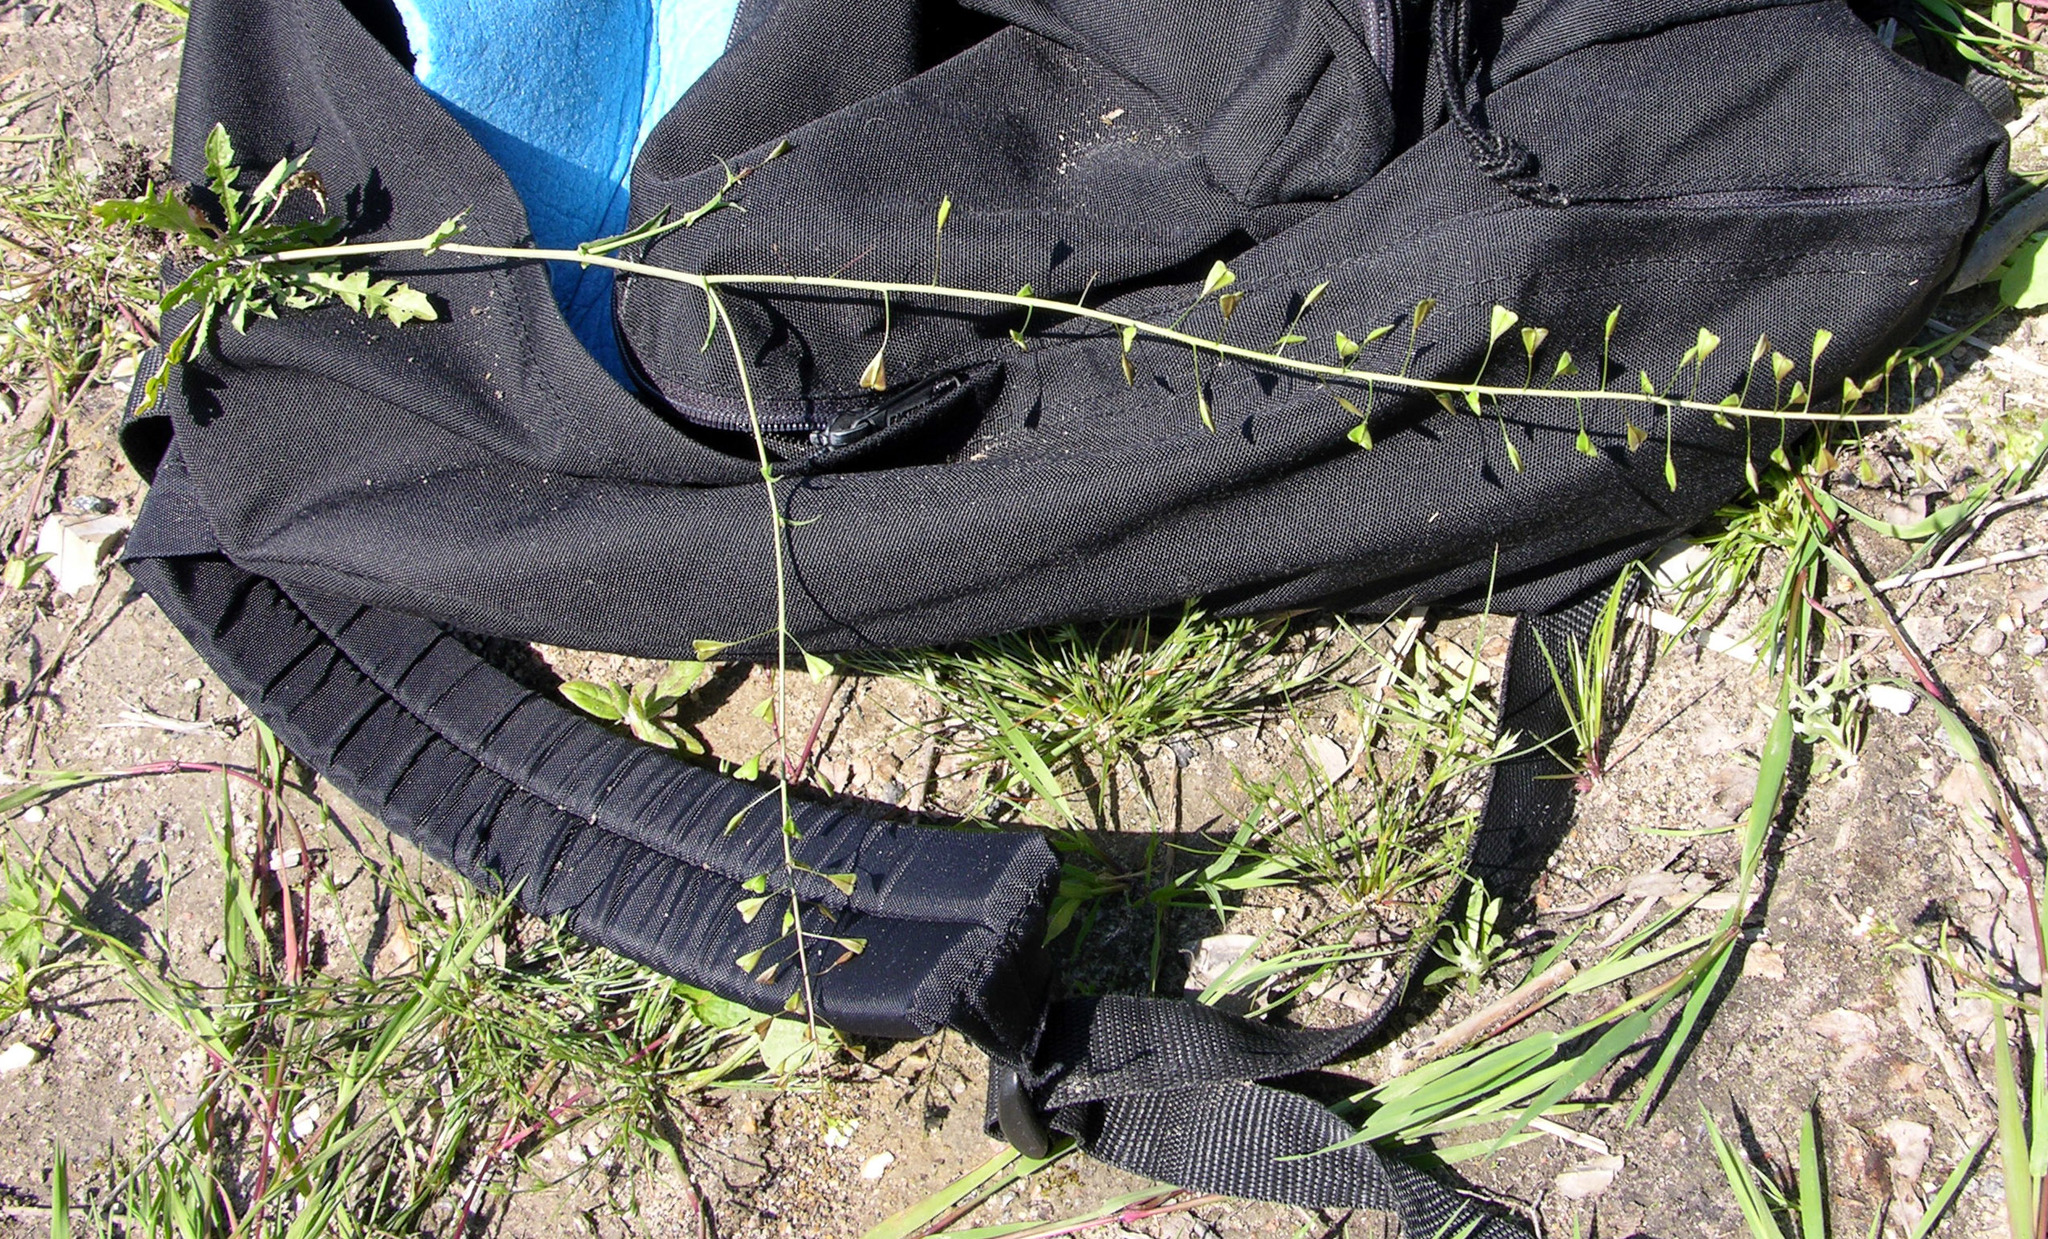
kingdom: Plantae
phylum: Tracheophyta
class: Magnoliopsida
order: Brassicales
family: Brassicaceae
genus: Capsella
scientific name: Capsella bursa-pastoris
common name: Shepherd's purse
